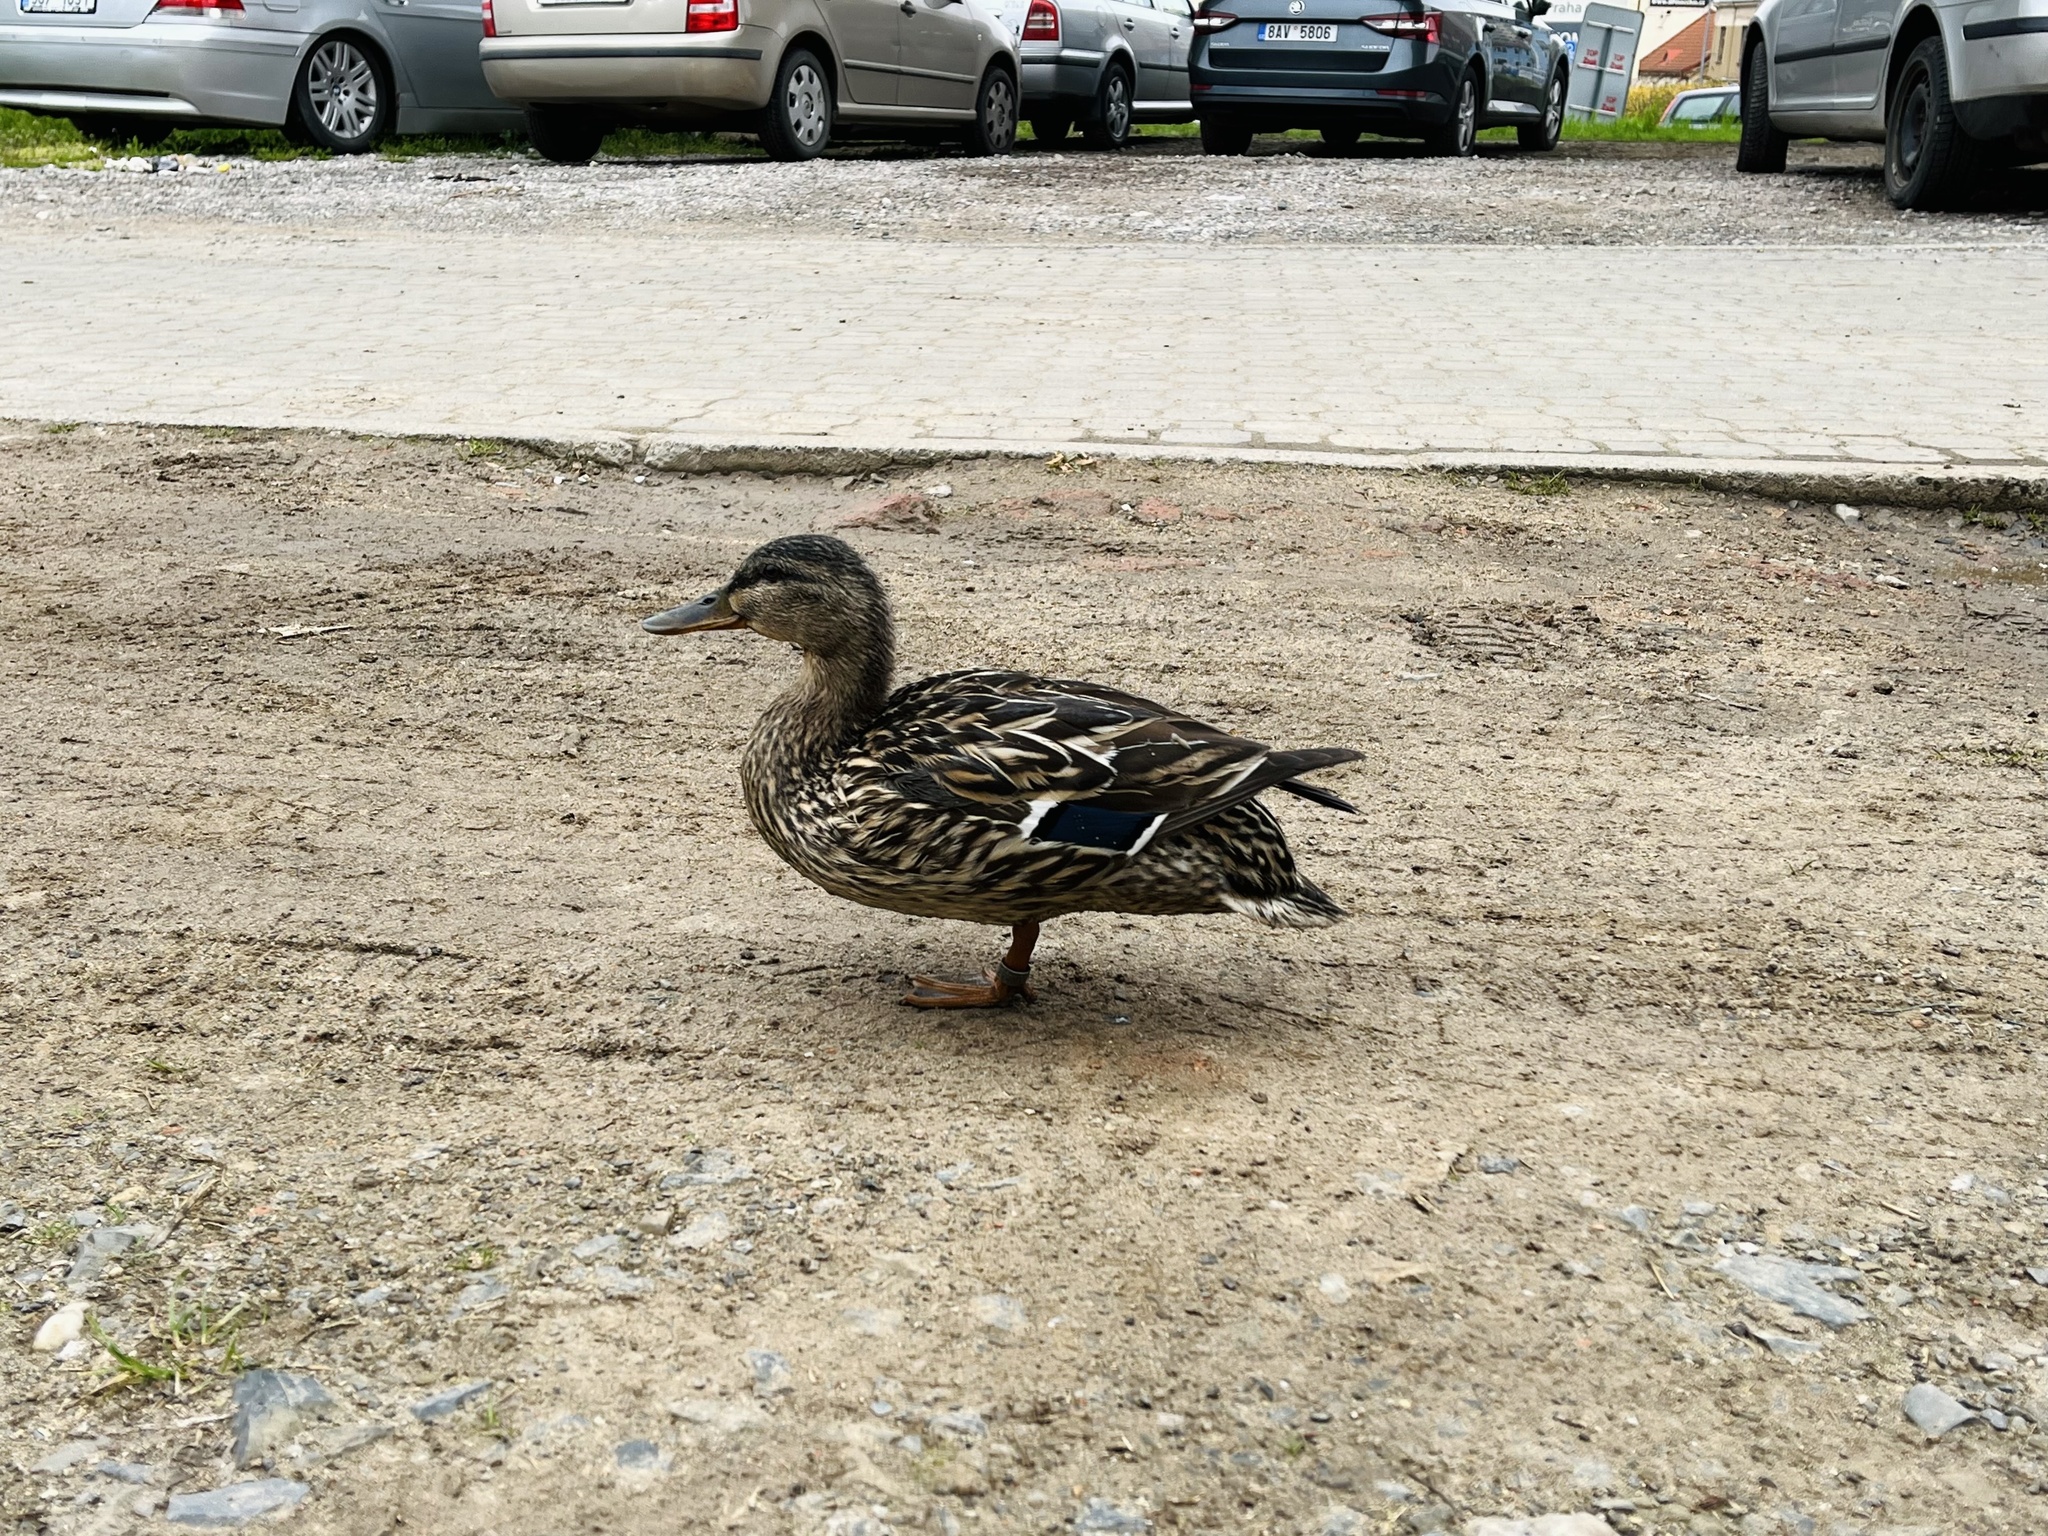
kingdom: Animalia
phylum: Chordata
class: Aves
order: Anseriformes
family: Anatidae
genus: Anas
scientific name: Anas platyrhynchos
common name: Mallard
